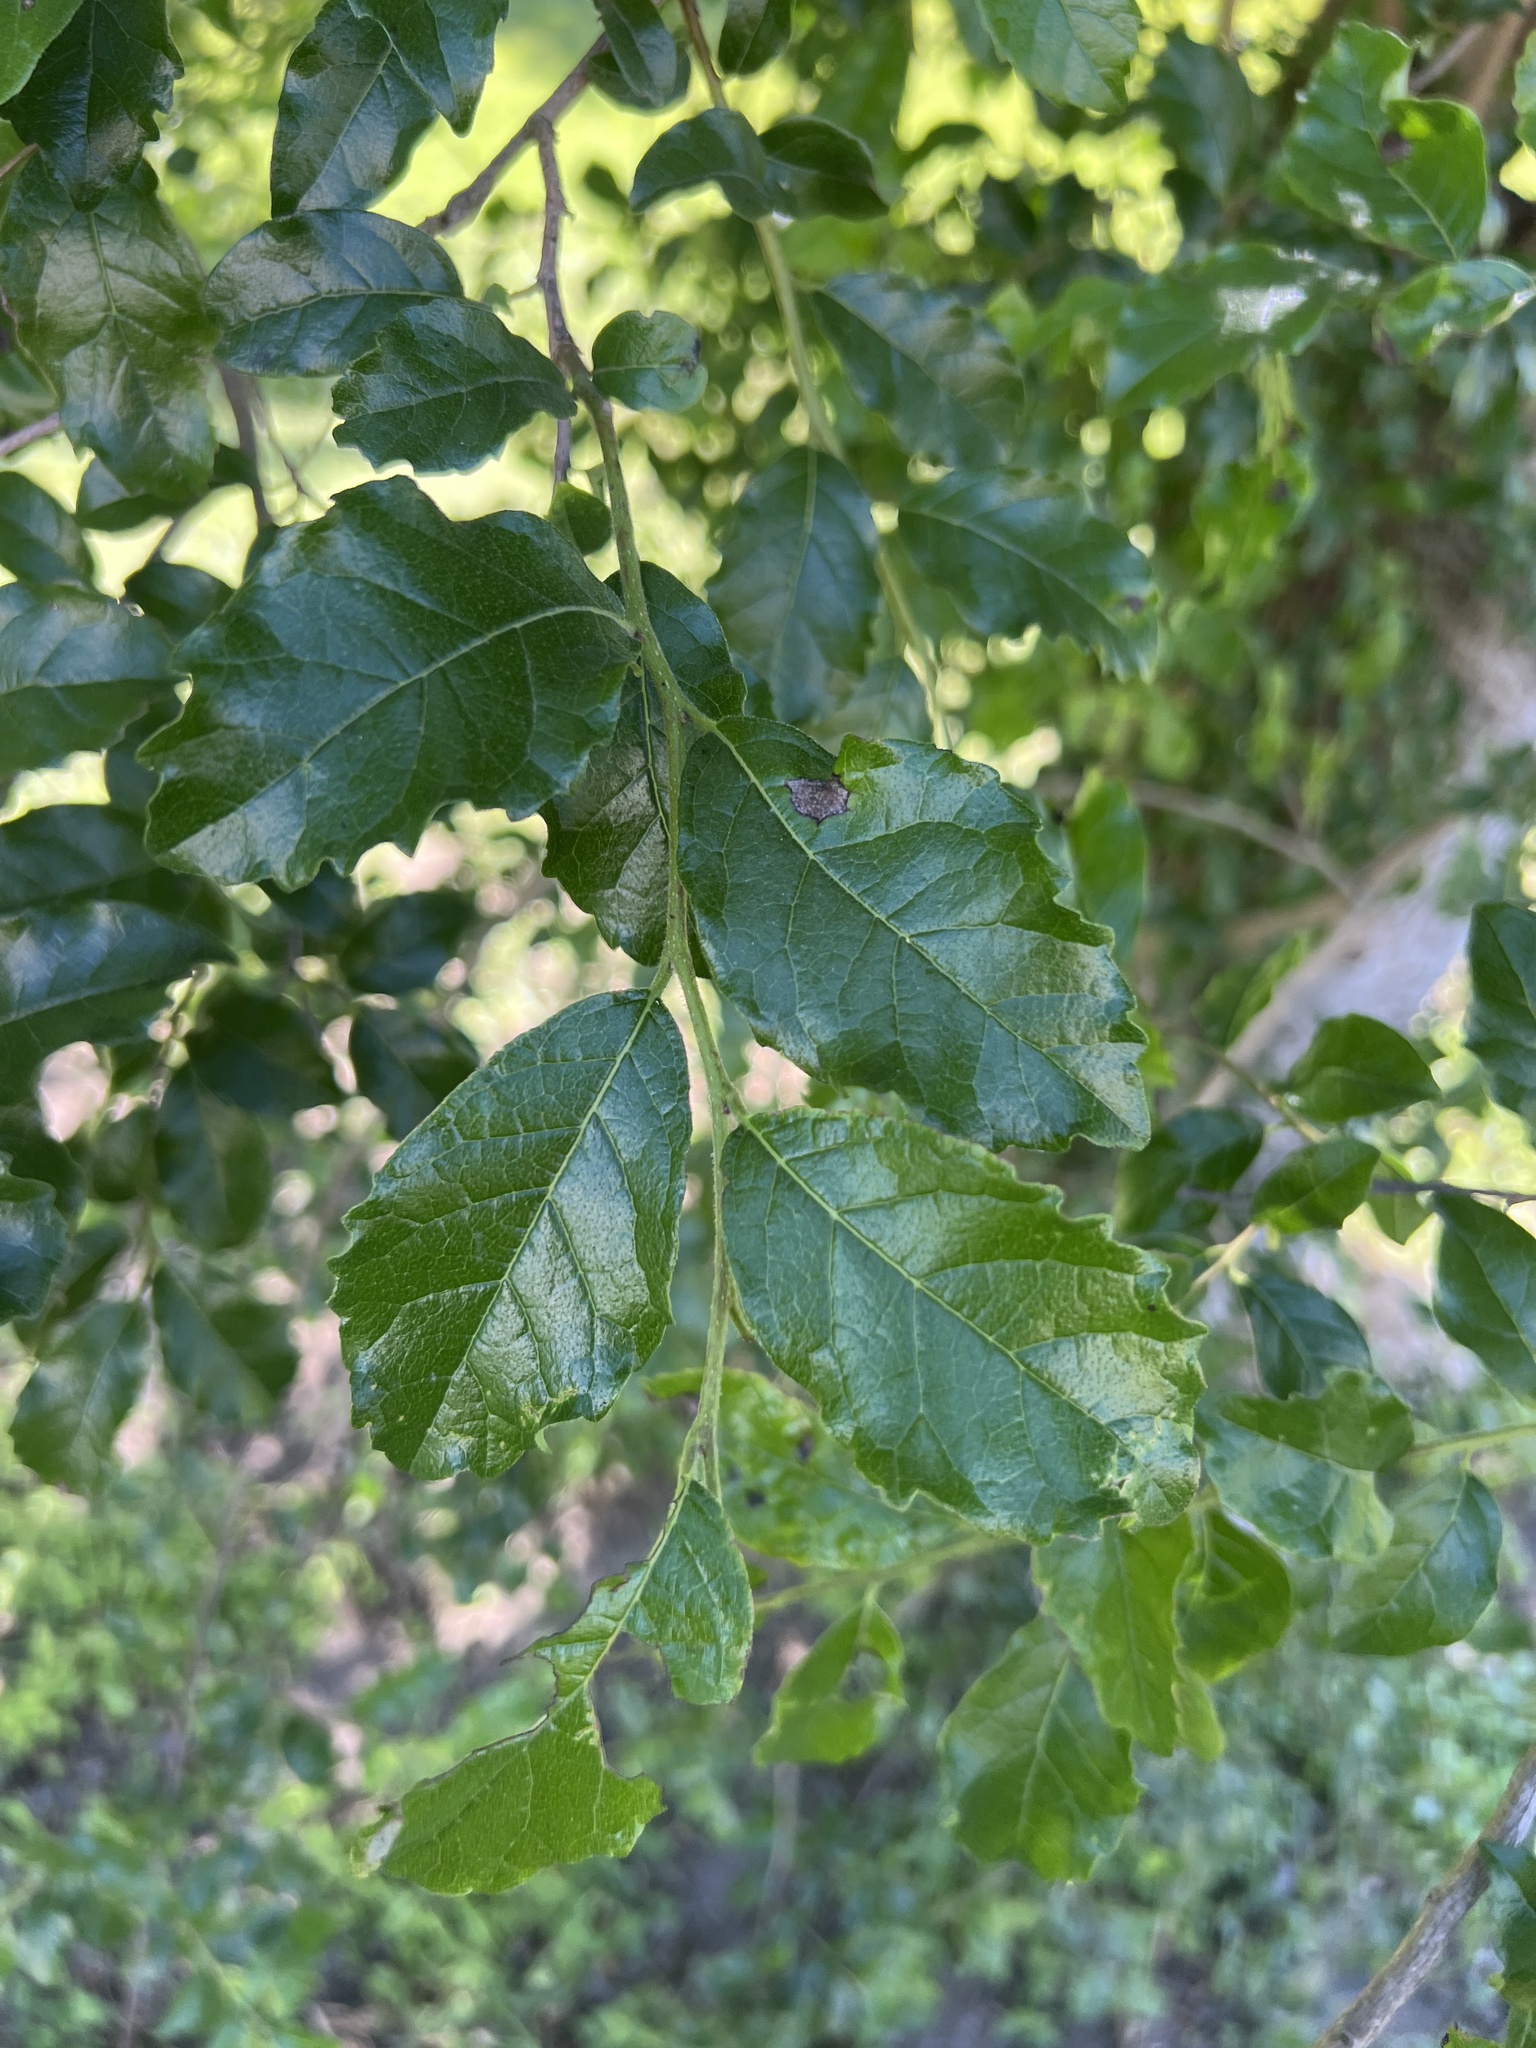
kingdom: Plantae
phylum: Tracheophyta
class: Magnoliopsida
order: Boraginales
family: Ehretiaceae
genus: Ehretia
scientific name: Ehretia anacua
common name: Sugarberry
